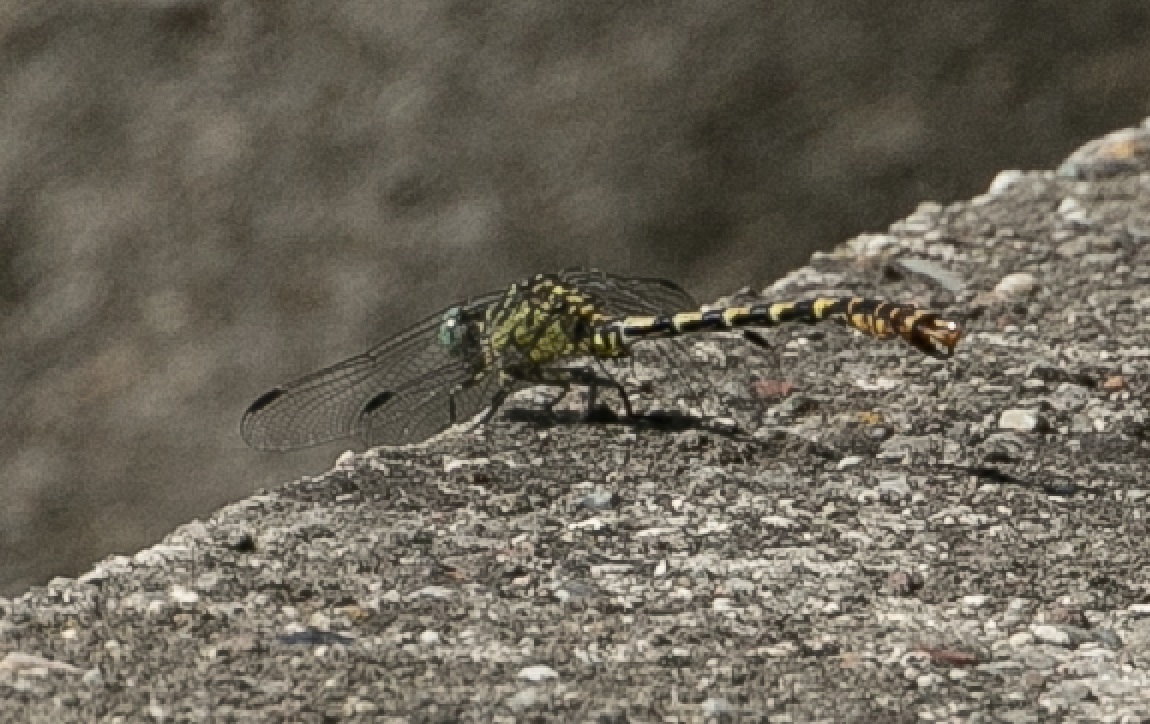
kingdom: Animalia
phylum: Arthropoda
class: Insecta
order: Odonata
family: Gomphidae
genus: Onychogomphus
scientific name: Onychogomphus forcipatus
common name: Small pincertail
